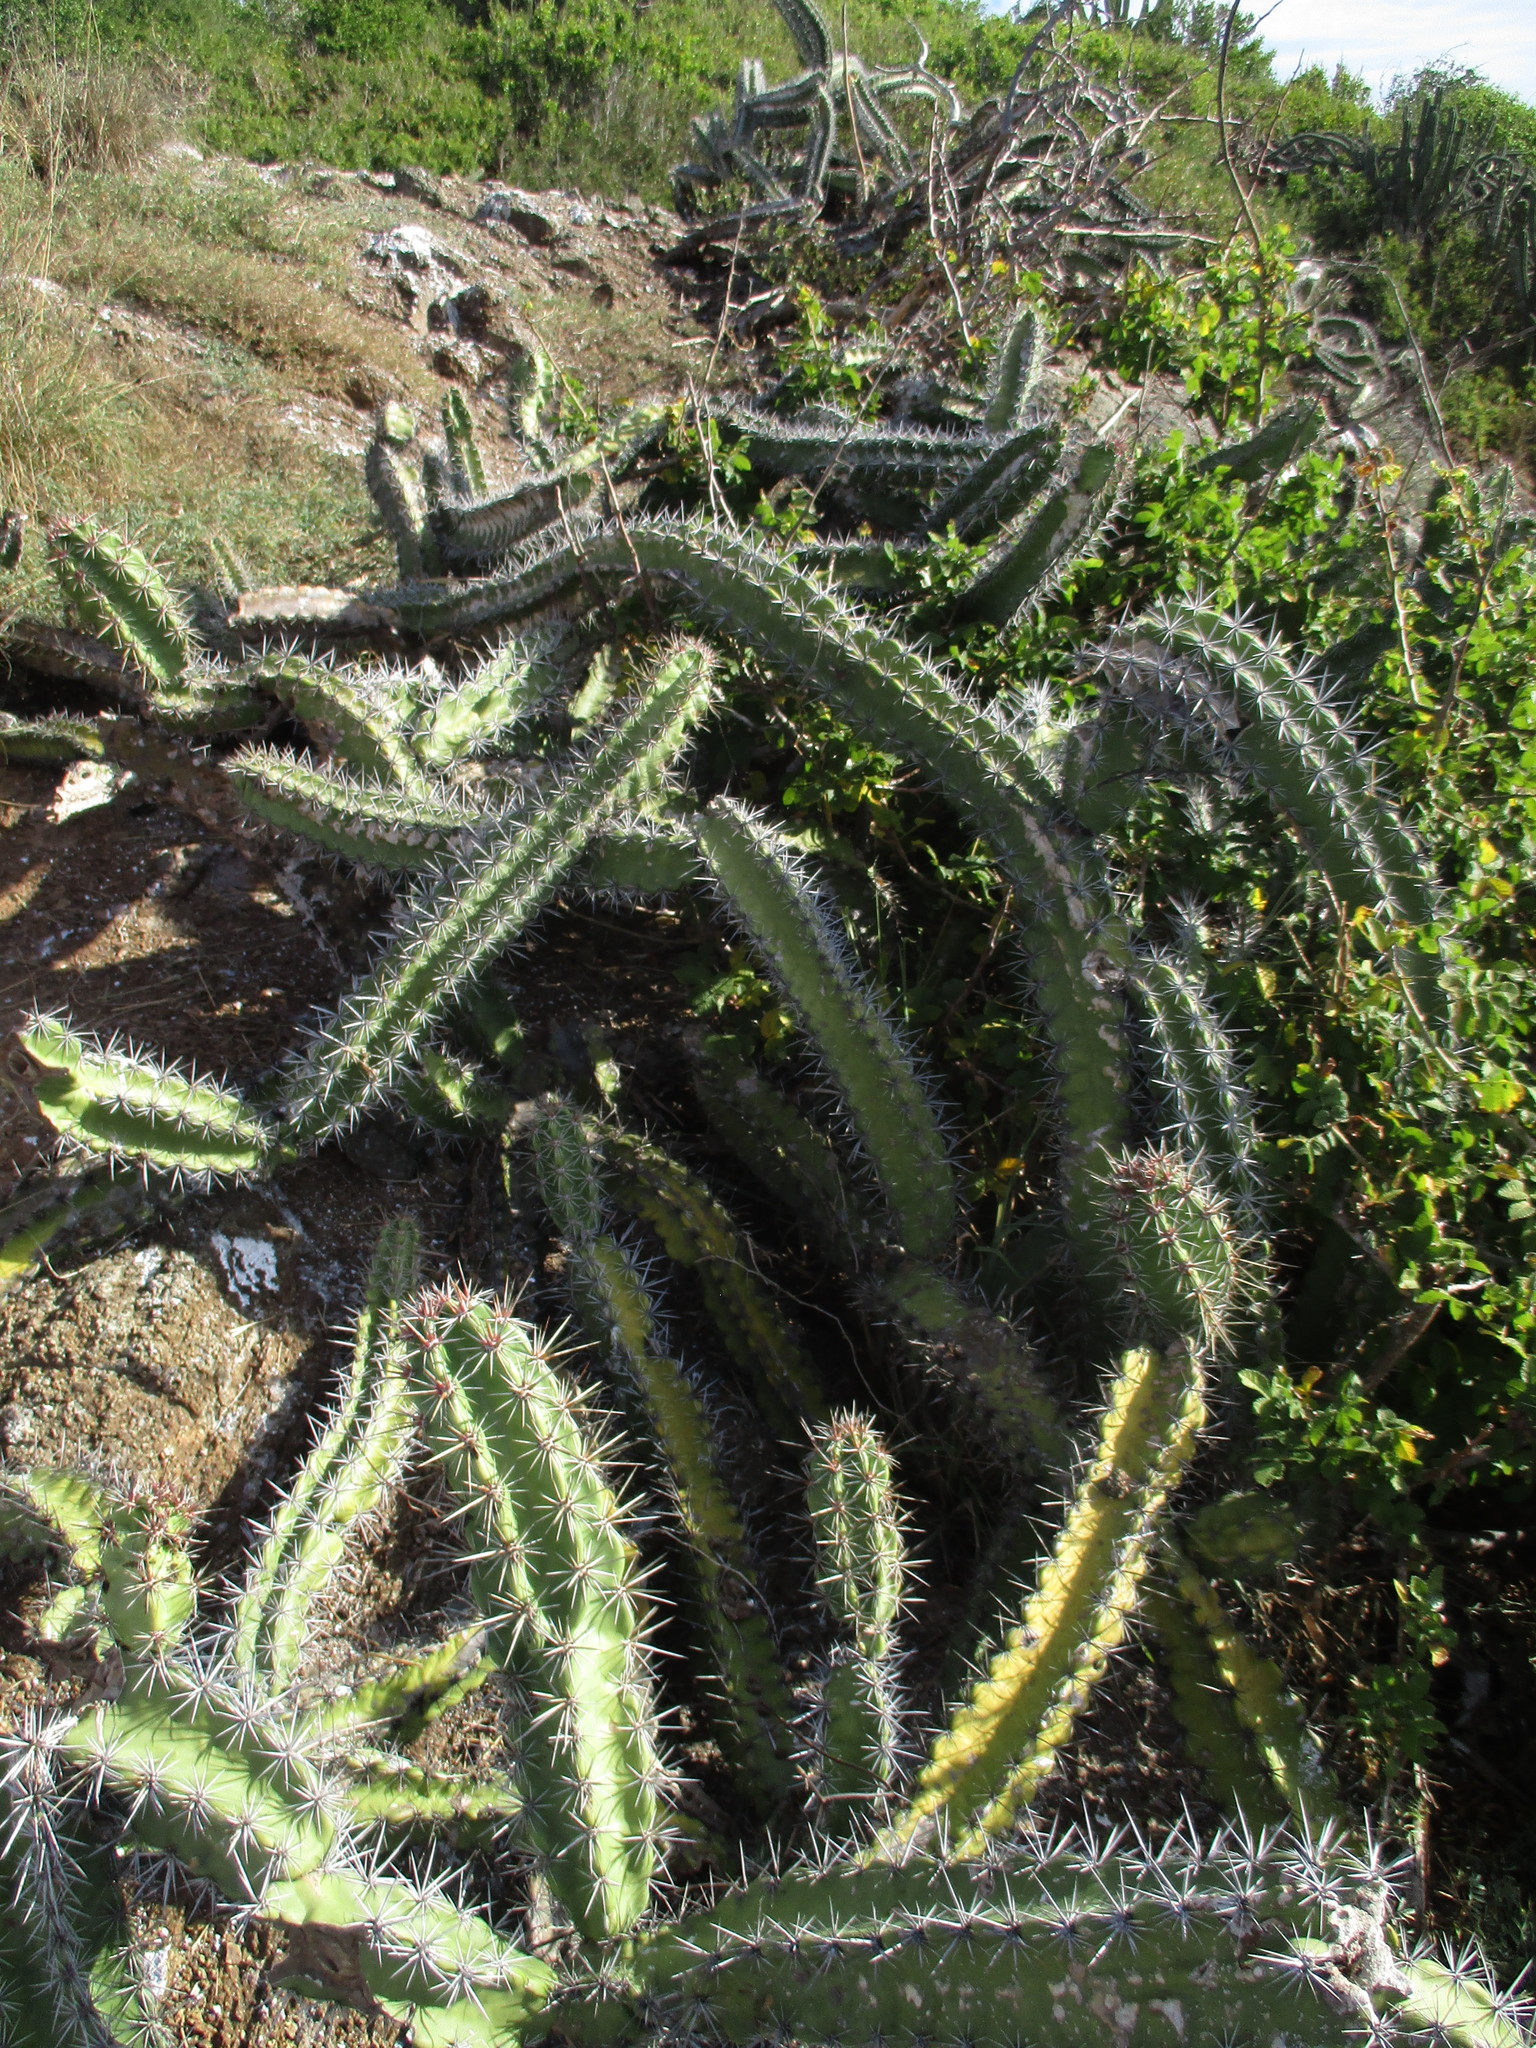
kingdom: Plantae
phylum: Tracheophyta
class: Magnoliopsida
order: Caryophyllales
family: Cactaceae
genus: Stenocereus
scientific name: Stenocereus standleyi
